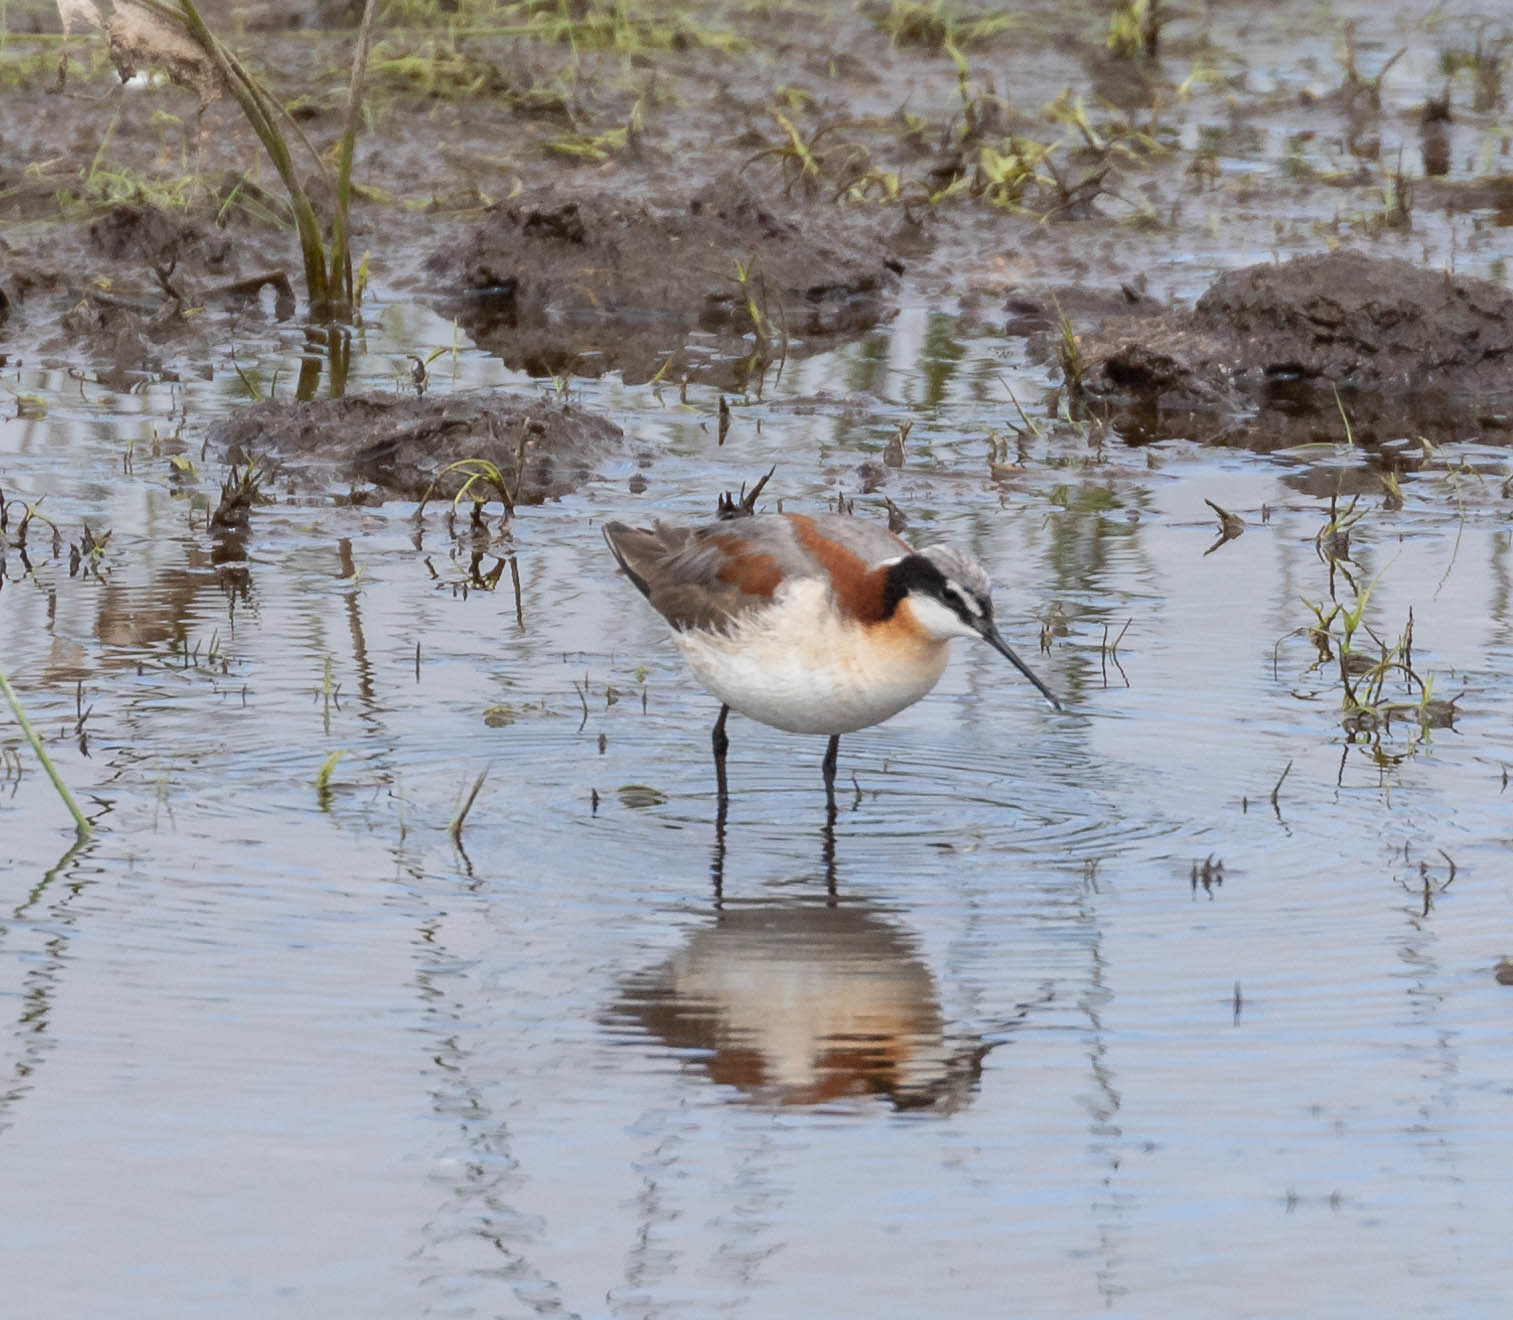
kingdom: Animalia
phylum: Chordata
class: Aves
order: Charadriiformes
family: Scolopacidae
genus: Phalaropus
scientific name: Phalaropus tricolor
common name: Wilson's phalarope
